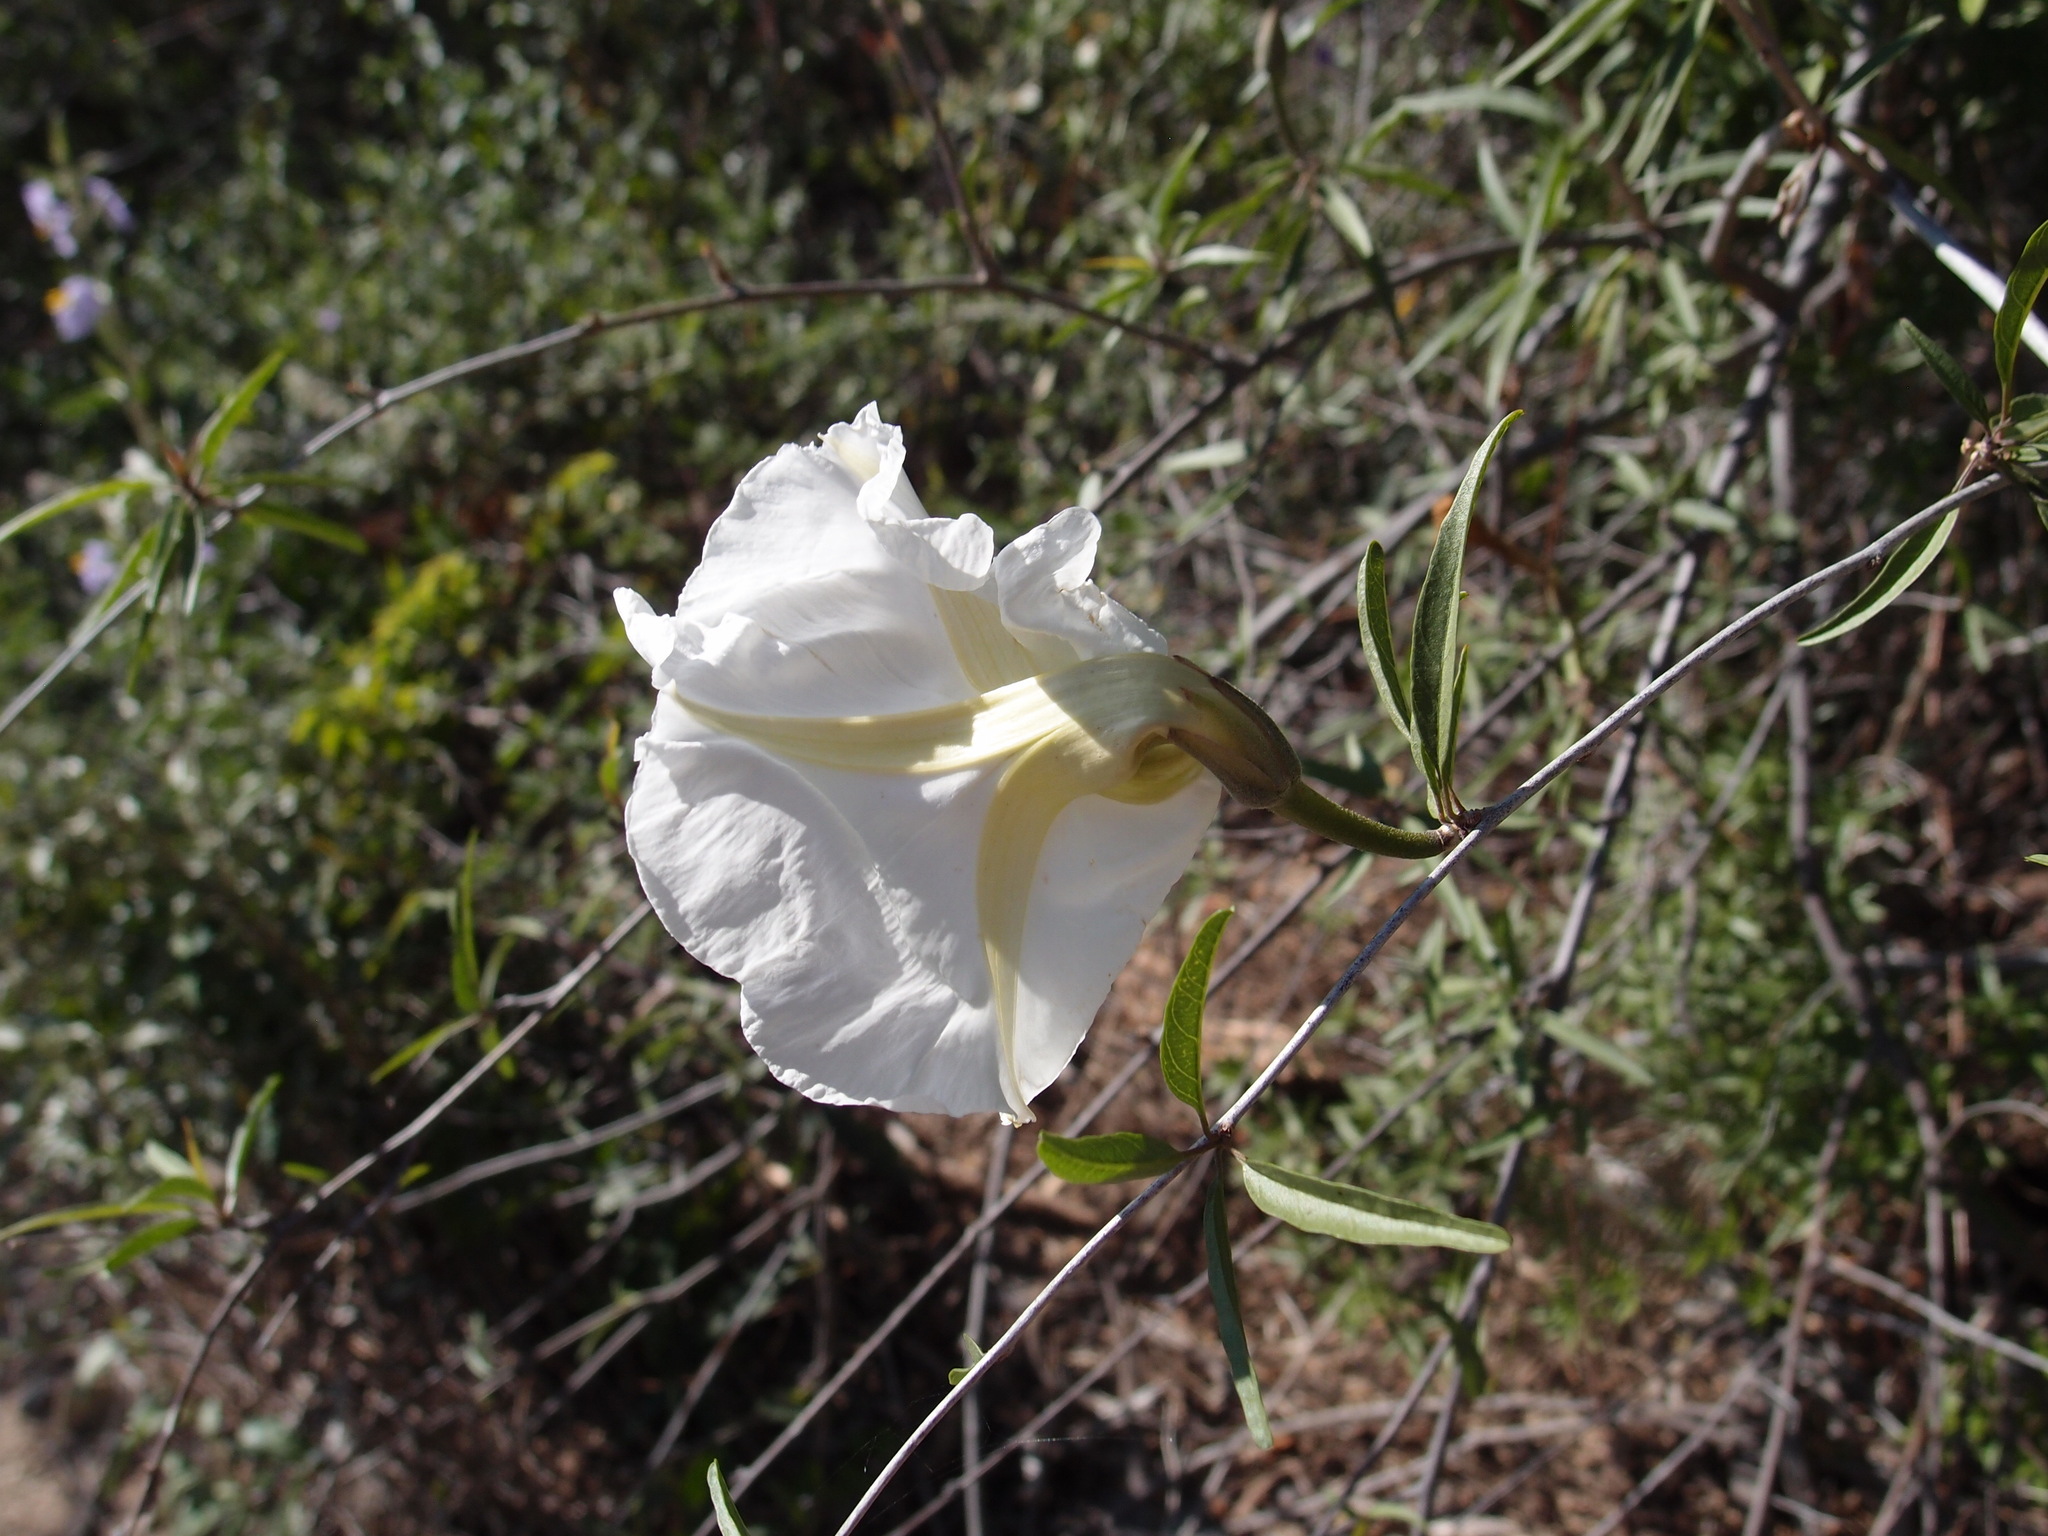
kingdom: Plantae
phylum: Tracheophyta
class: Magnoliopsida
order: Solanales
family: Convolvulaceae
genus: Ipomoea
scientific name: Ipomoea seaania
